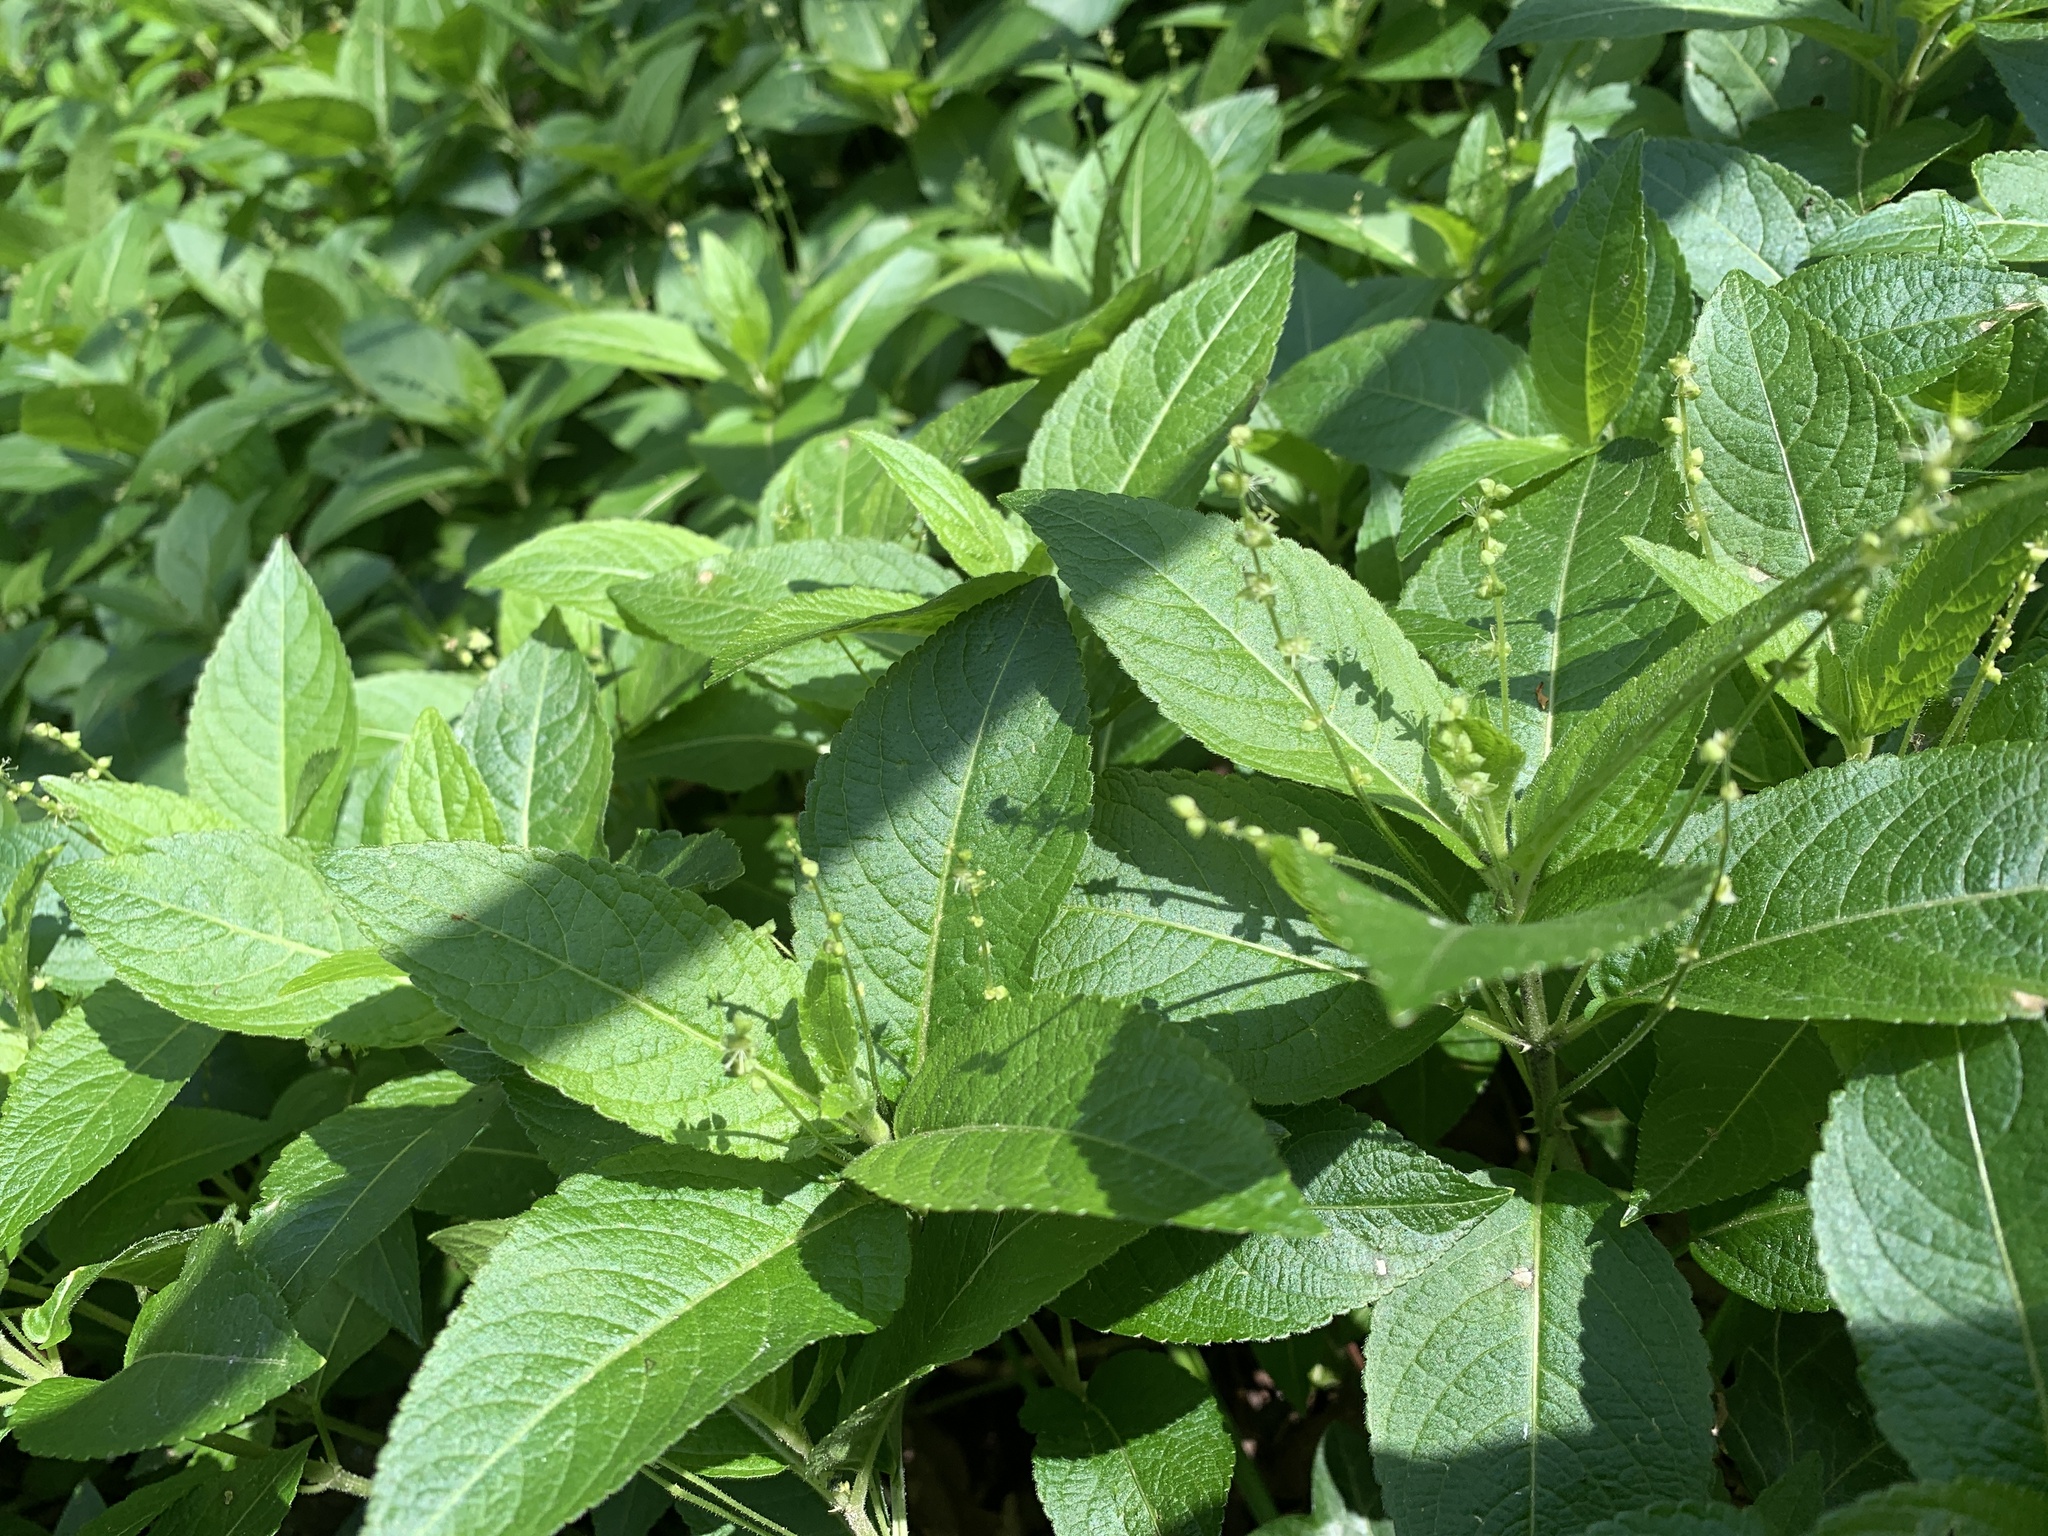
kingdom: Plantae
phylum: Tracheophyta
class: Magnoliopsida
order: Malpighiales
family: Euphorbiaceae
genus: Mercurialis
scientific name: Mercurialis perennis
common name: Dog mercury
